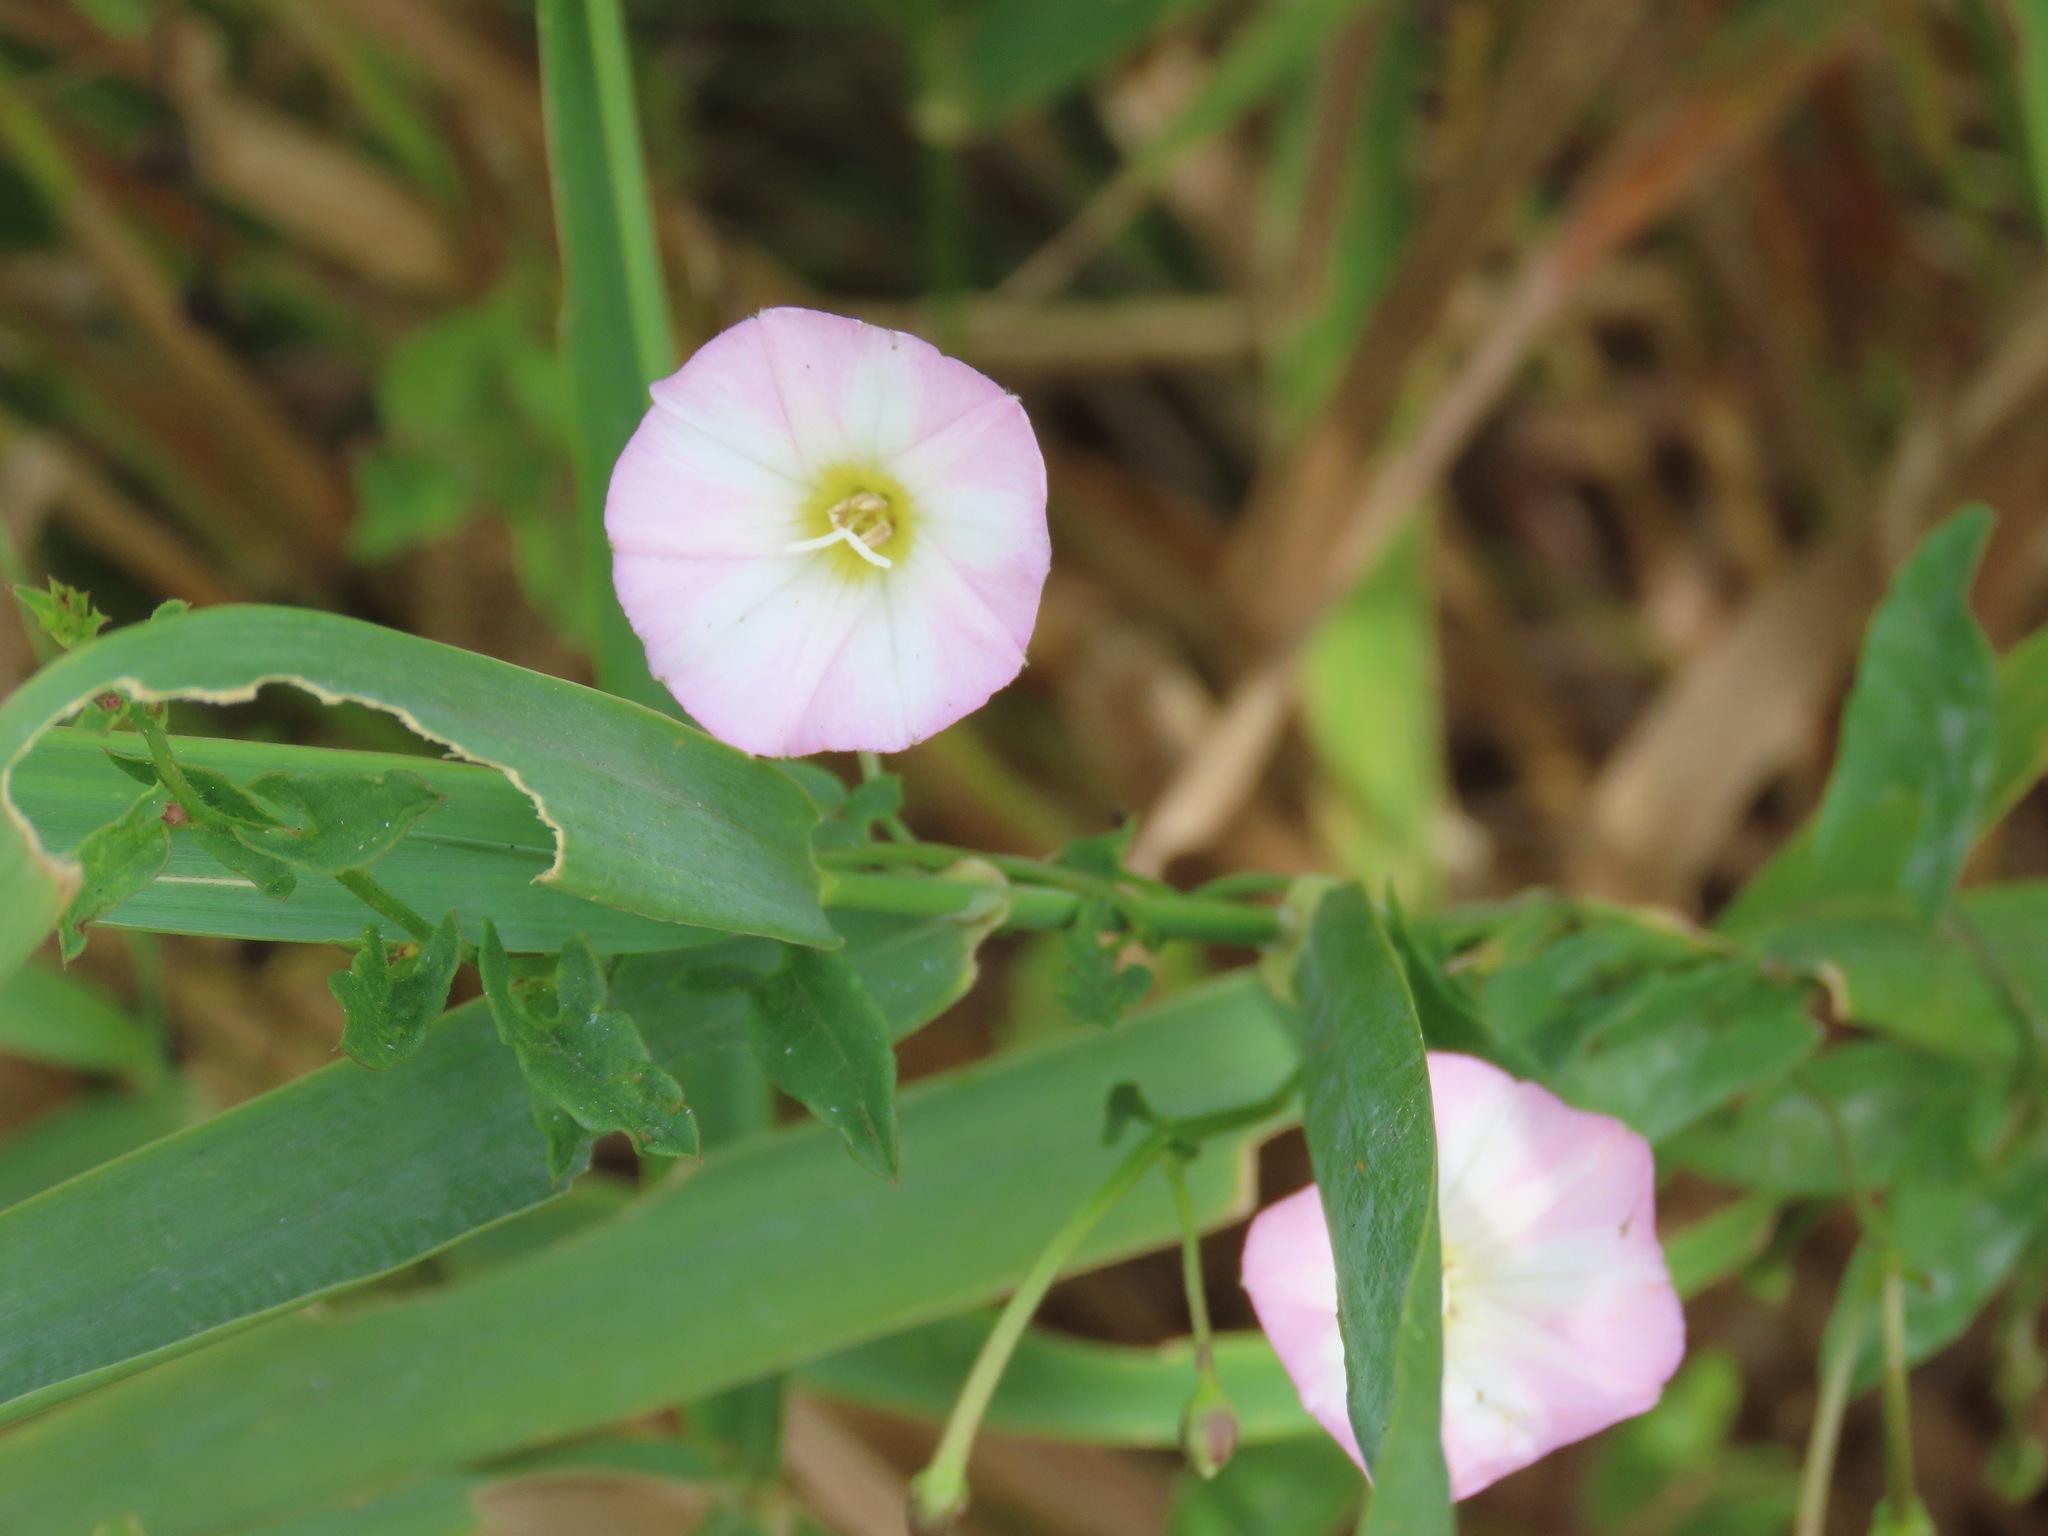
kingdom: Plantae
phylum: Tracheophyta
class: Magnoliopsida
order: Solanales
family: Convolvulaceae
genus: Convolvulus
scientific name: Convolvulus arvensis
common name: Field bindweed
